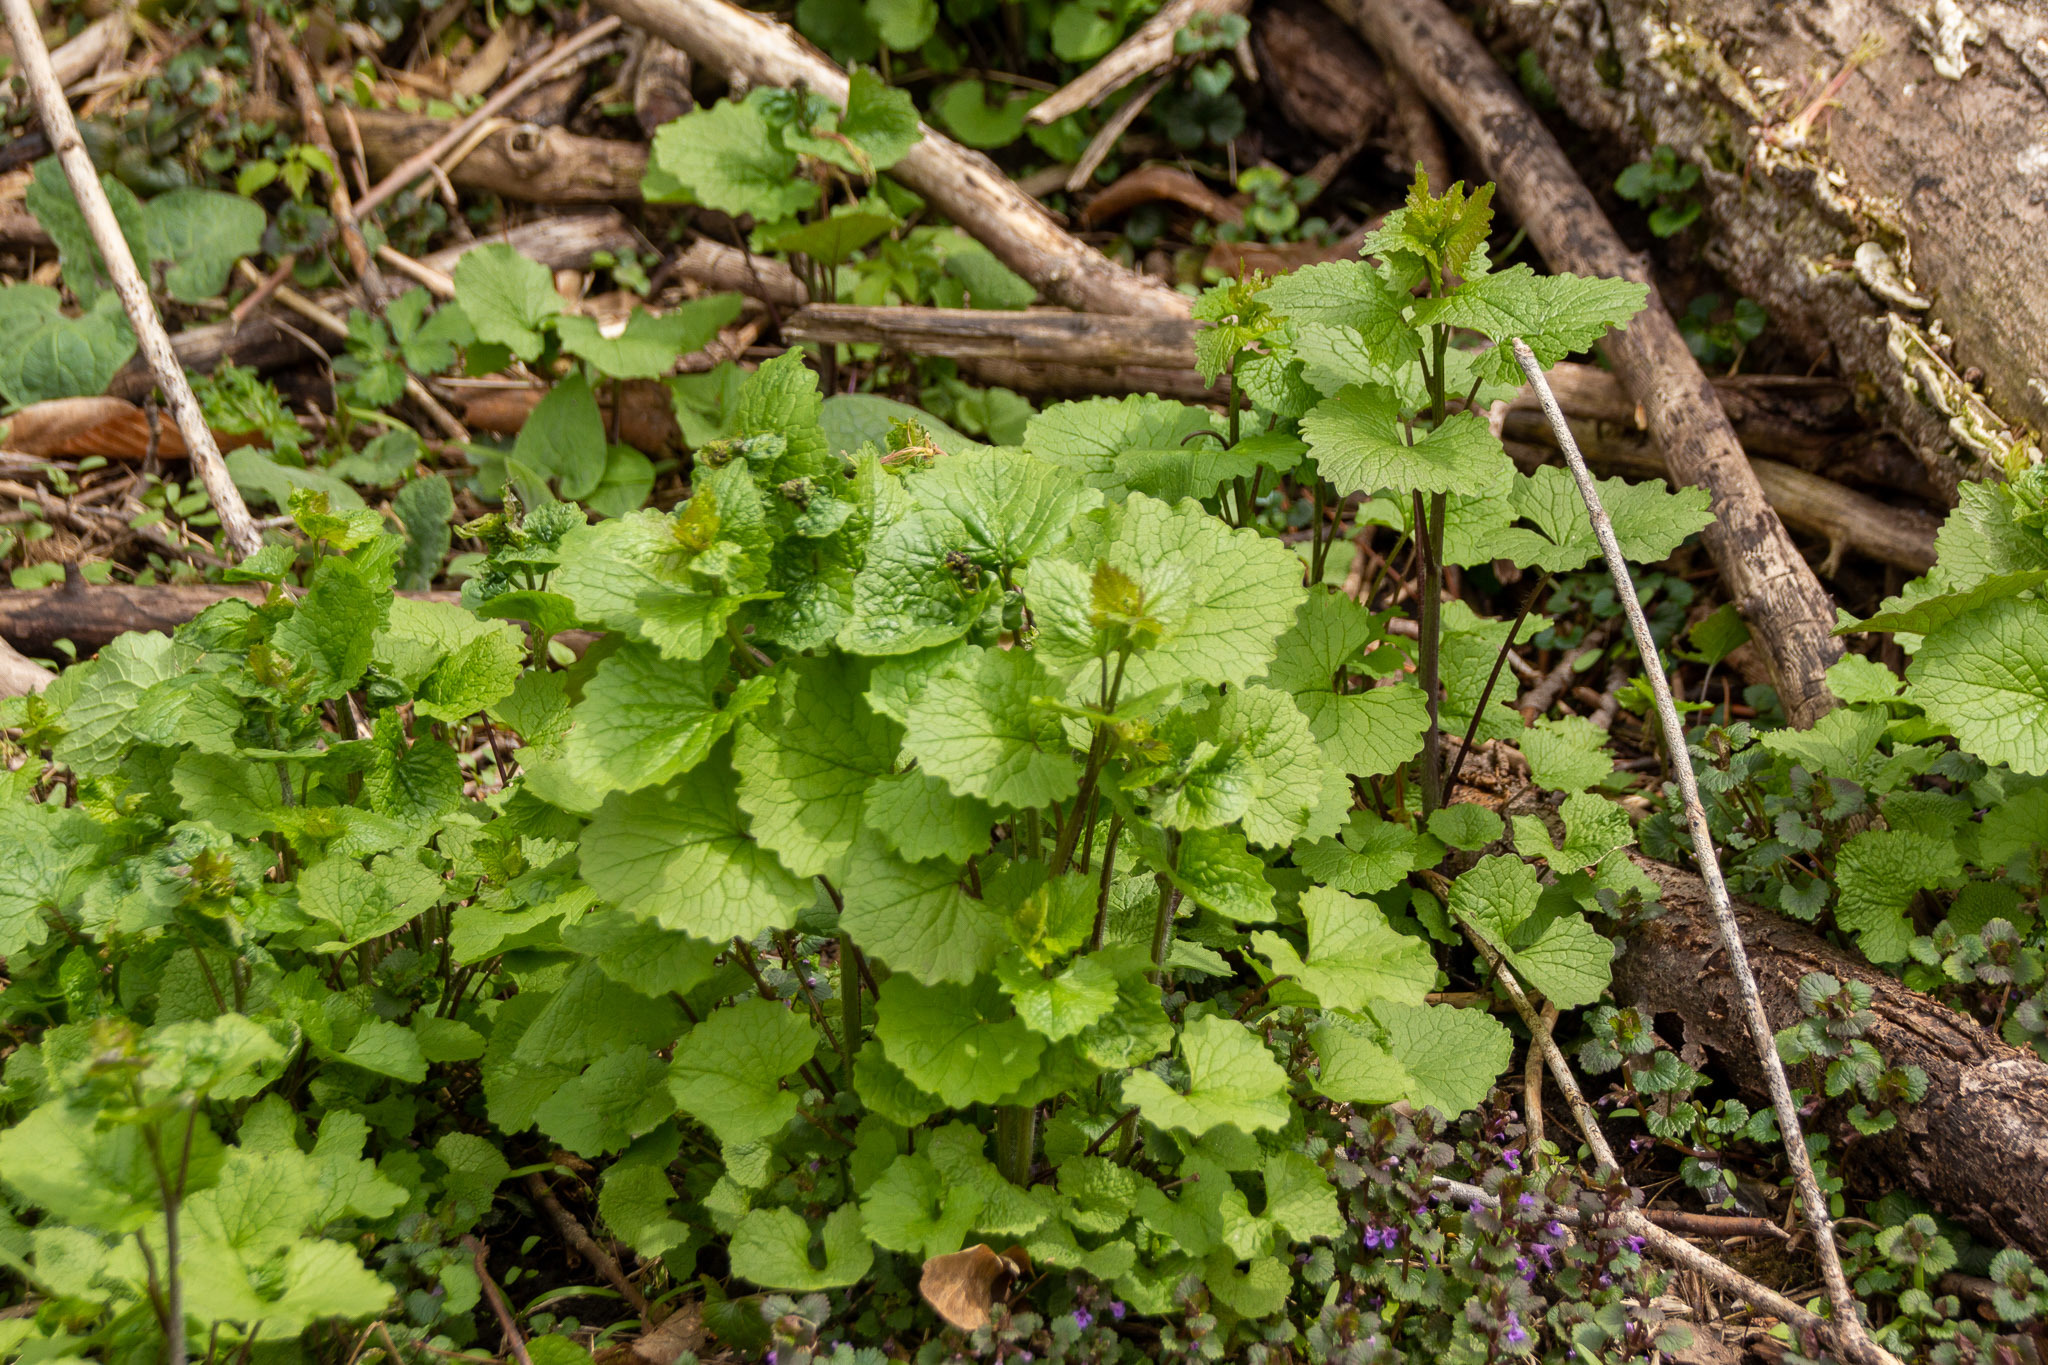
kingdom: Plantae
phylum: Tracheophyta
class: Magnoliopsida
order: Brassicales
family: Brassicaceae
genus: Alliaria
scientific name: Alliaria petiolata
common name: Garlic mustard
